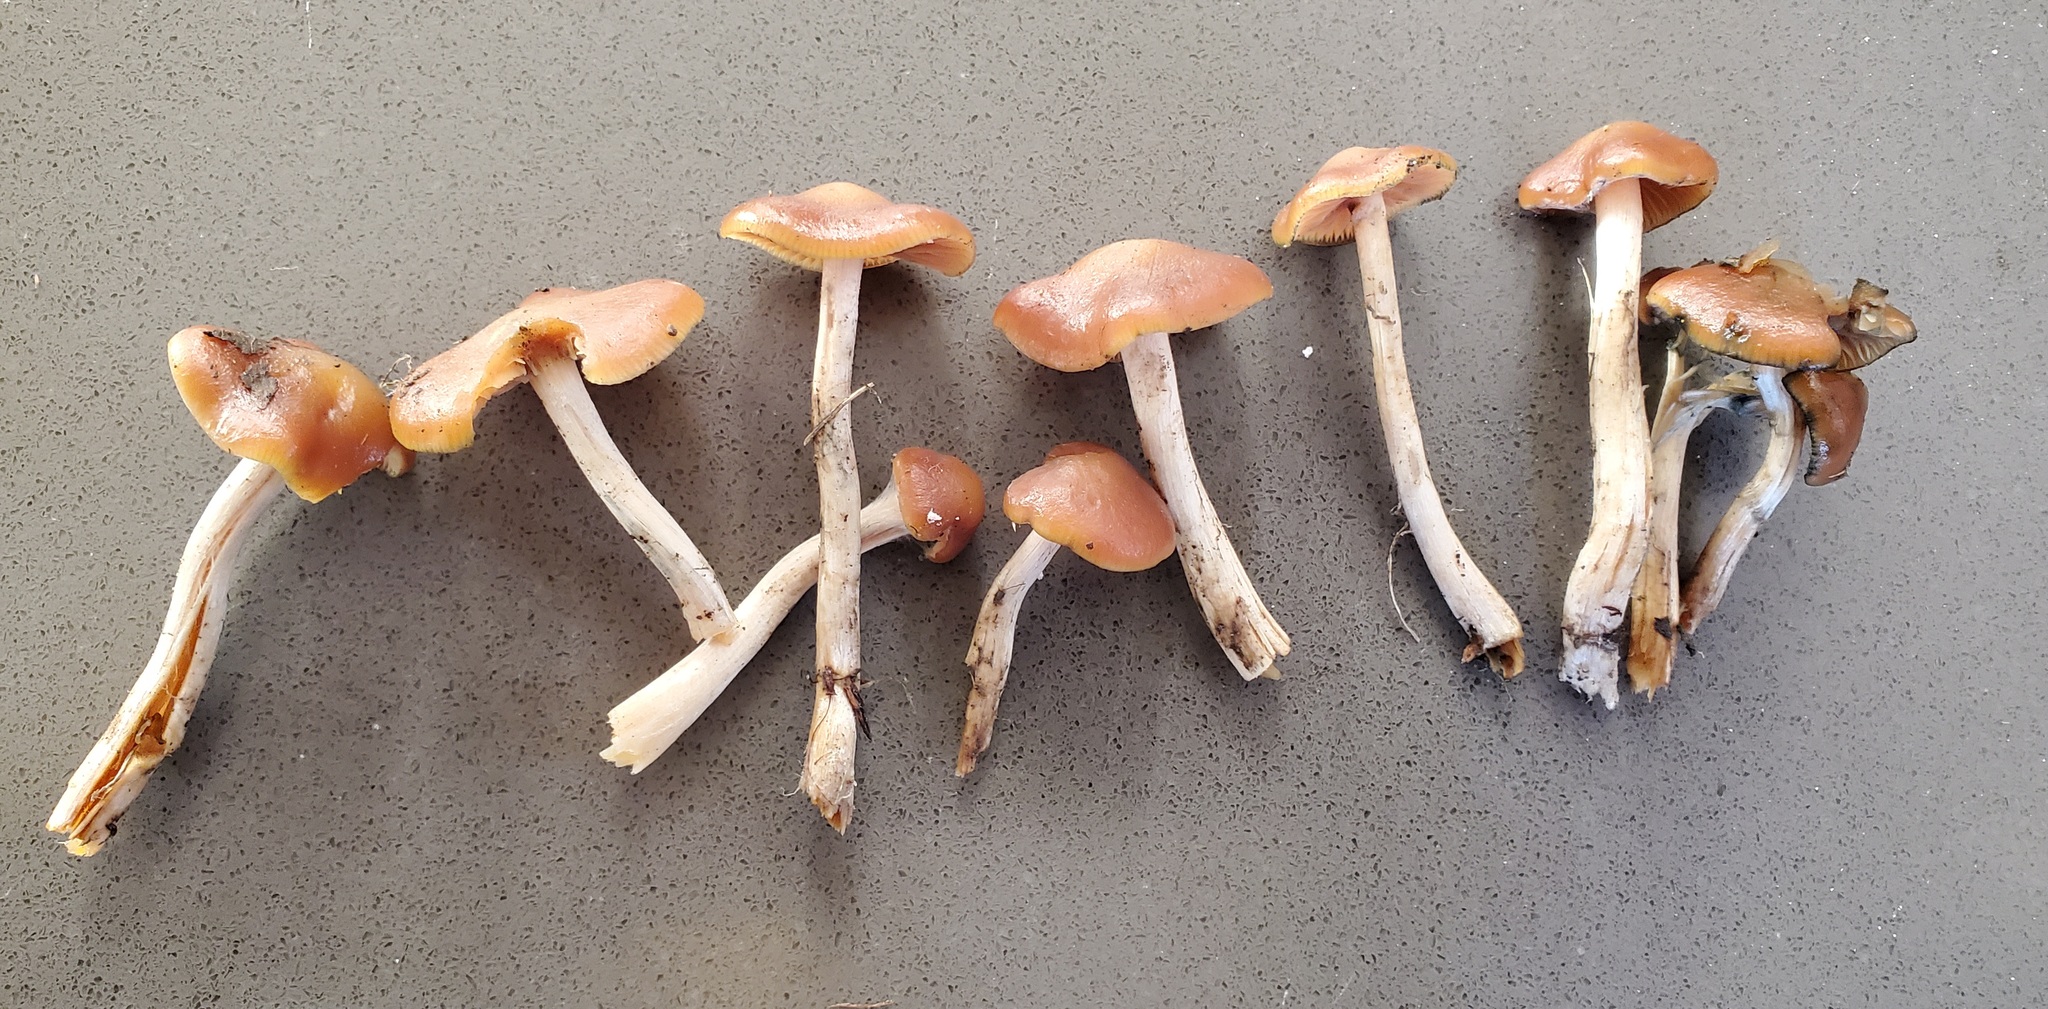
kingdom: Fungi
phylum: Basidiomycota
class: Agaricomycetes
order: Agaricales
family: Hymenogastraceae
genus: Psilocybe
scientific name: Psilocybe cyanescens
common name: Blueleg brownie
